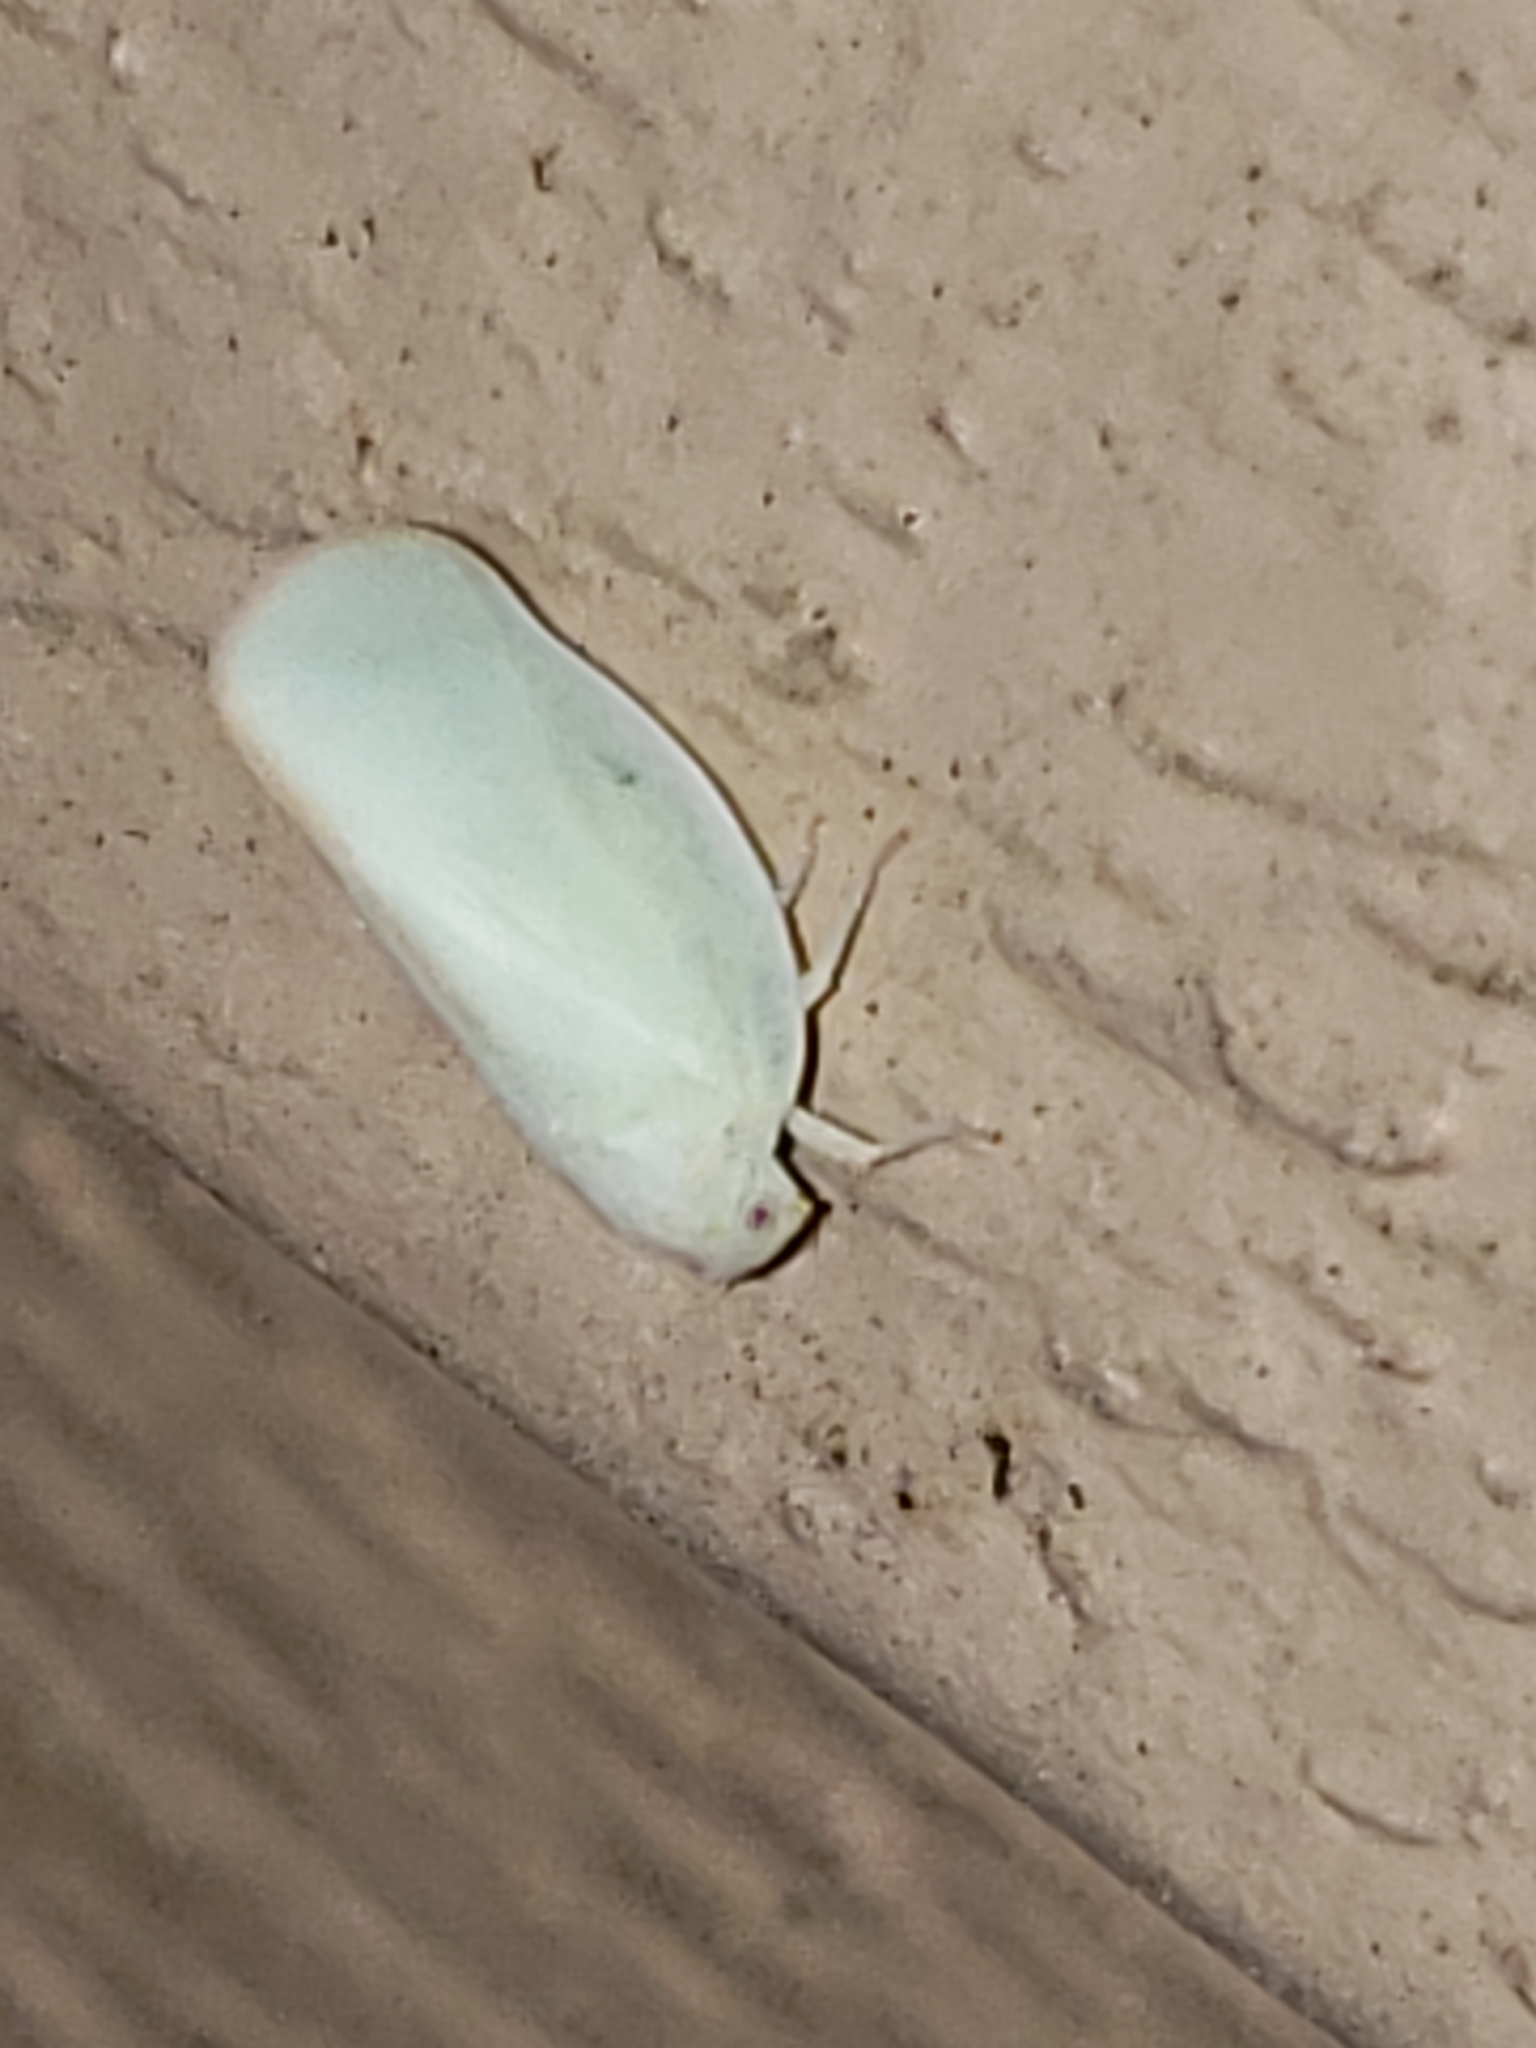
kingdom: Animalia
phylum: Arthropoda
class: Insecta
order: Hemiptera
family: Flatidae
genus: Ormenoides
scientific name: Ormenoides venusta
